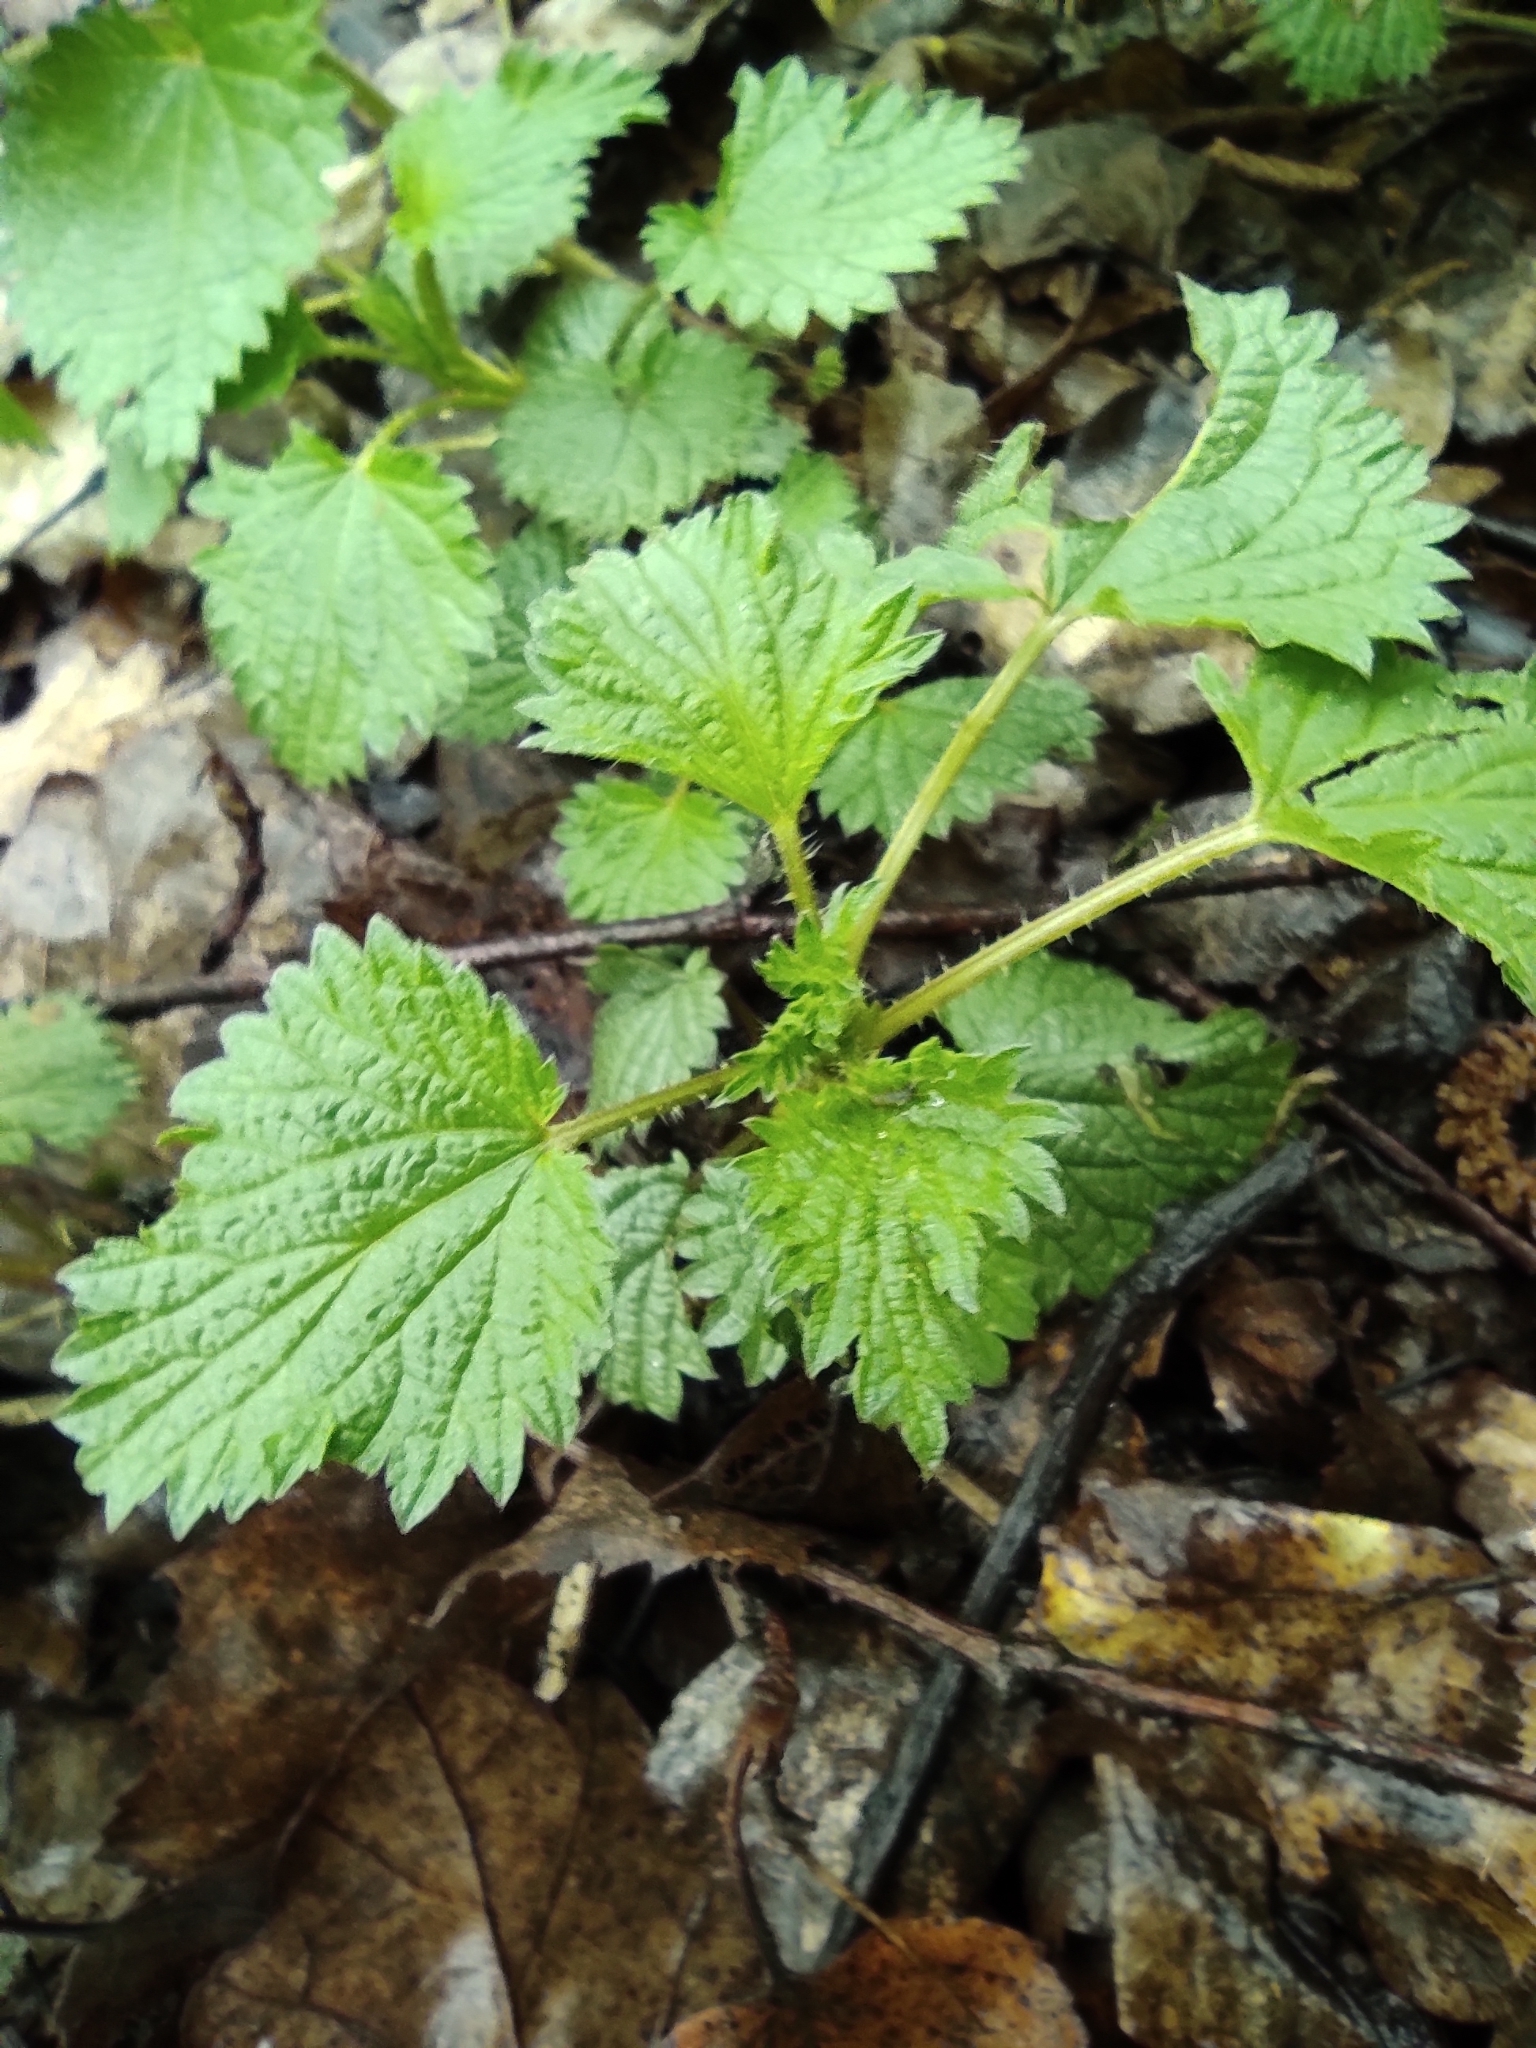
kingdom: Plantae
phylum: Tracheophyta
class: Magnoliopsida
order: Rosales
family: Urticaceae
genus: Urtica
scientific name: Urtica dioica
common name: Common nettle
